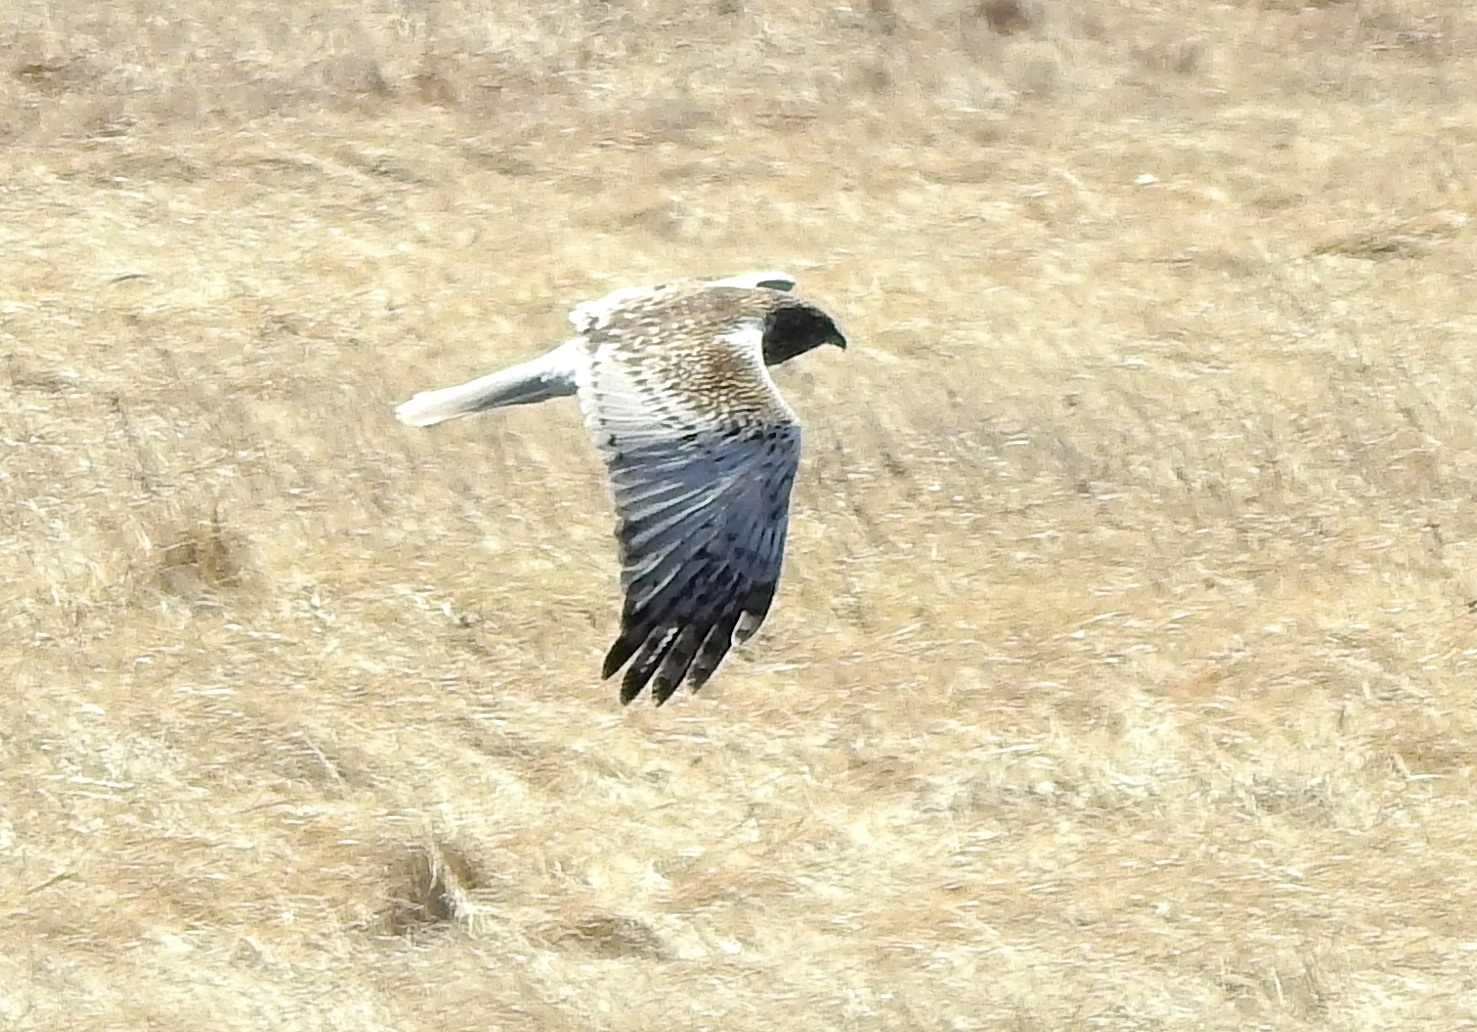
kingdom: Animalia
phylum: Chordata
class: Aves
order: Accipitriformes
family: Accipitridae
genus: Circus
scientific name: Circus spilonotus
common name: Eastern marsh-harrier
